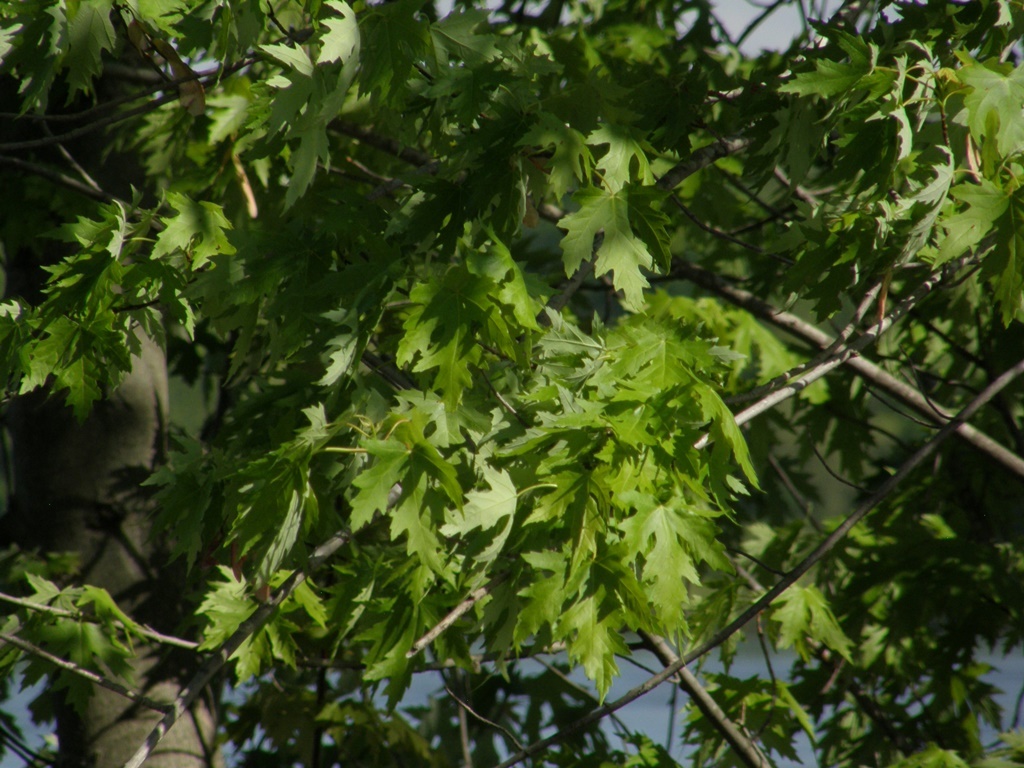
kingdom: Plantae
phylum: Tracheophyta
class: Magnoliopsida
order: Sapindales
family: Sapindaceae
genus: Acer
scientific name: Acer saccharinum
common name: Silver maple
